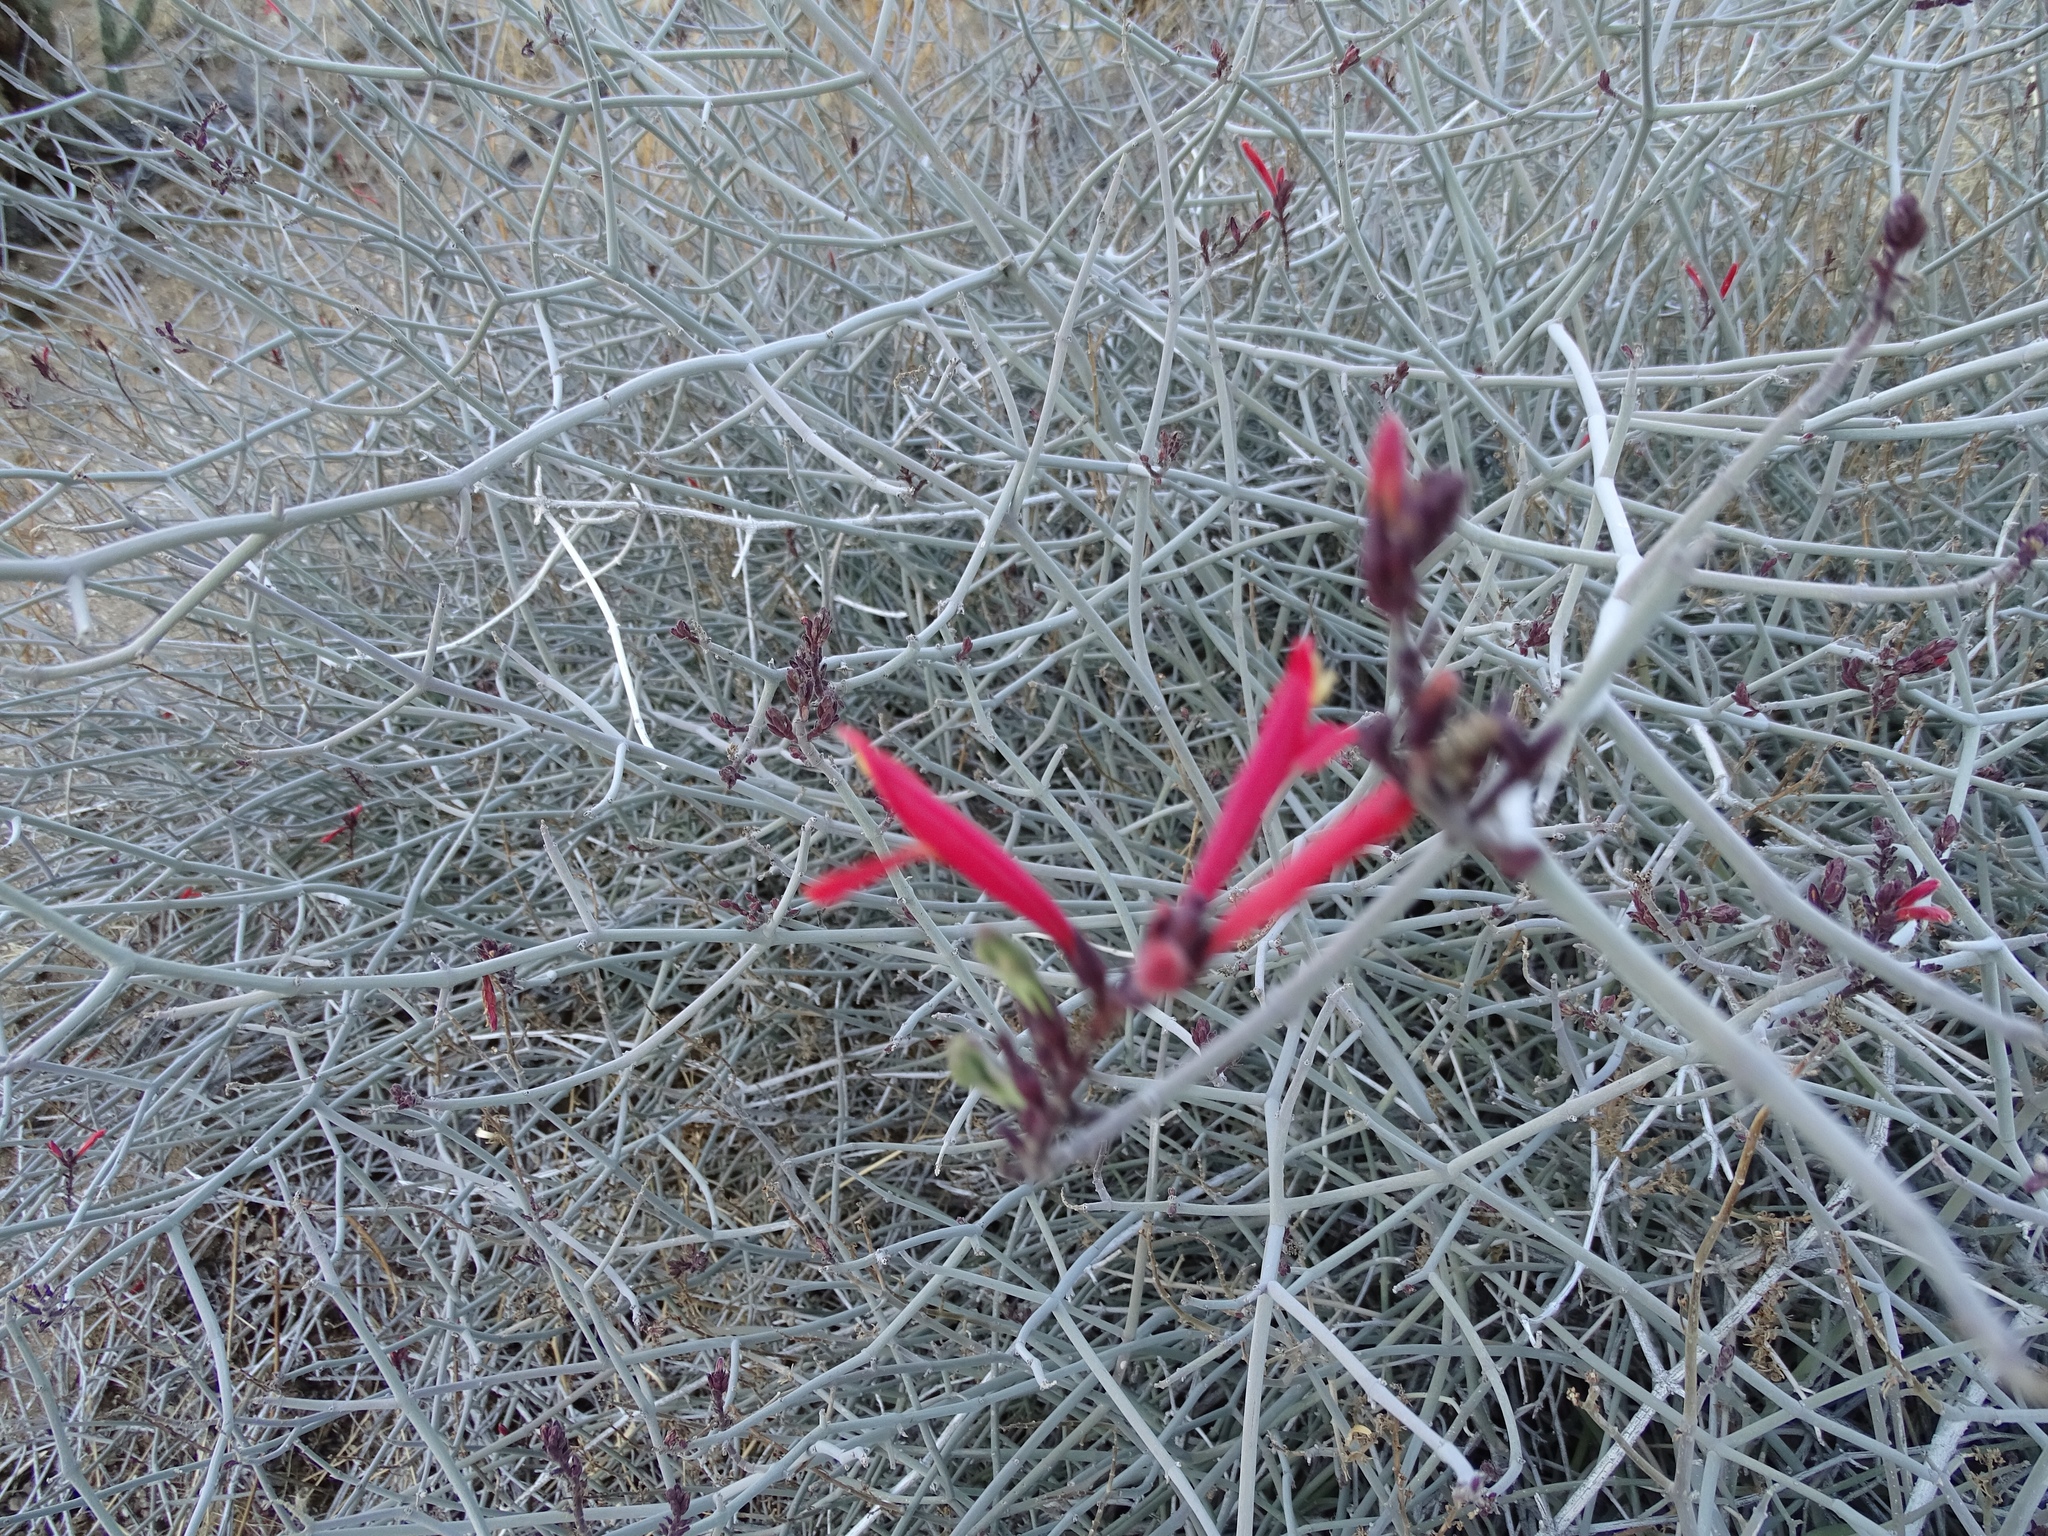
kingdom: Plantae
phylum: Tracheophyta
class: Magnoliopsida
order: Lamiales
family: Acanthaceae
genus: Justicia
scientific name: Justicia californica
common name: Chuparosa-honeysuckle
